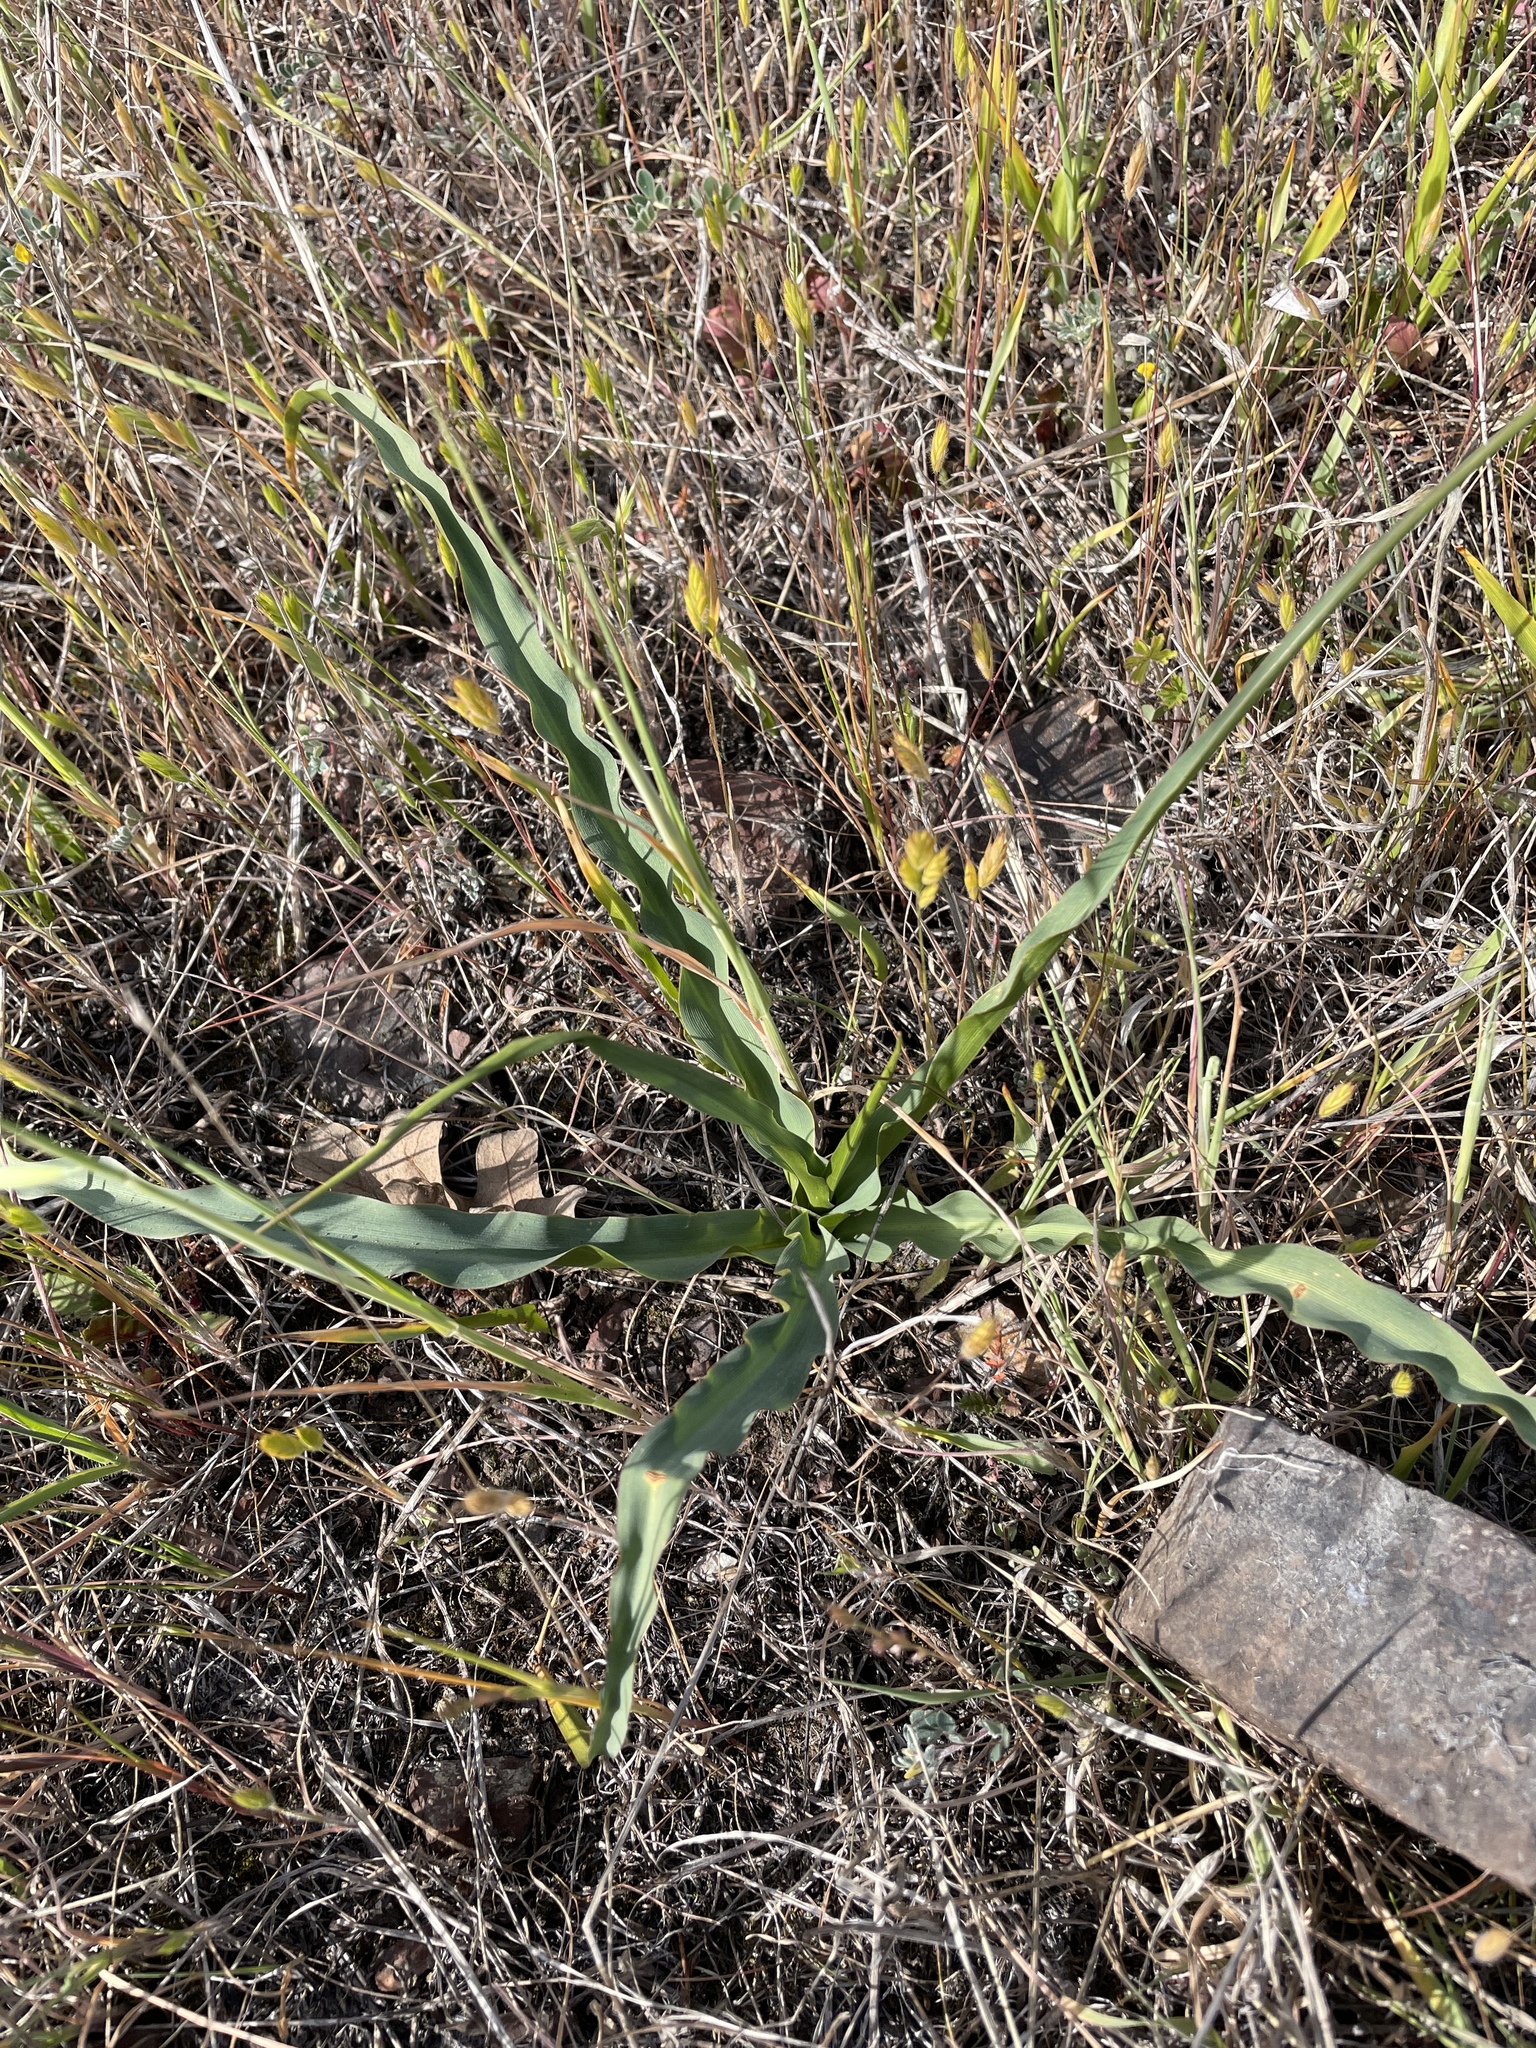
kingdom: Plantae
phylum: Tracheophyta
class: Liliopsida
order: Asparagales
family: Asparagaceae
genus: Chlorogalum
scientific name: Chlorogalum pomeridianum
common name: Amole
